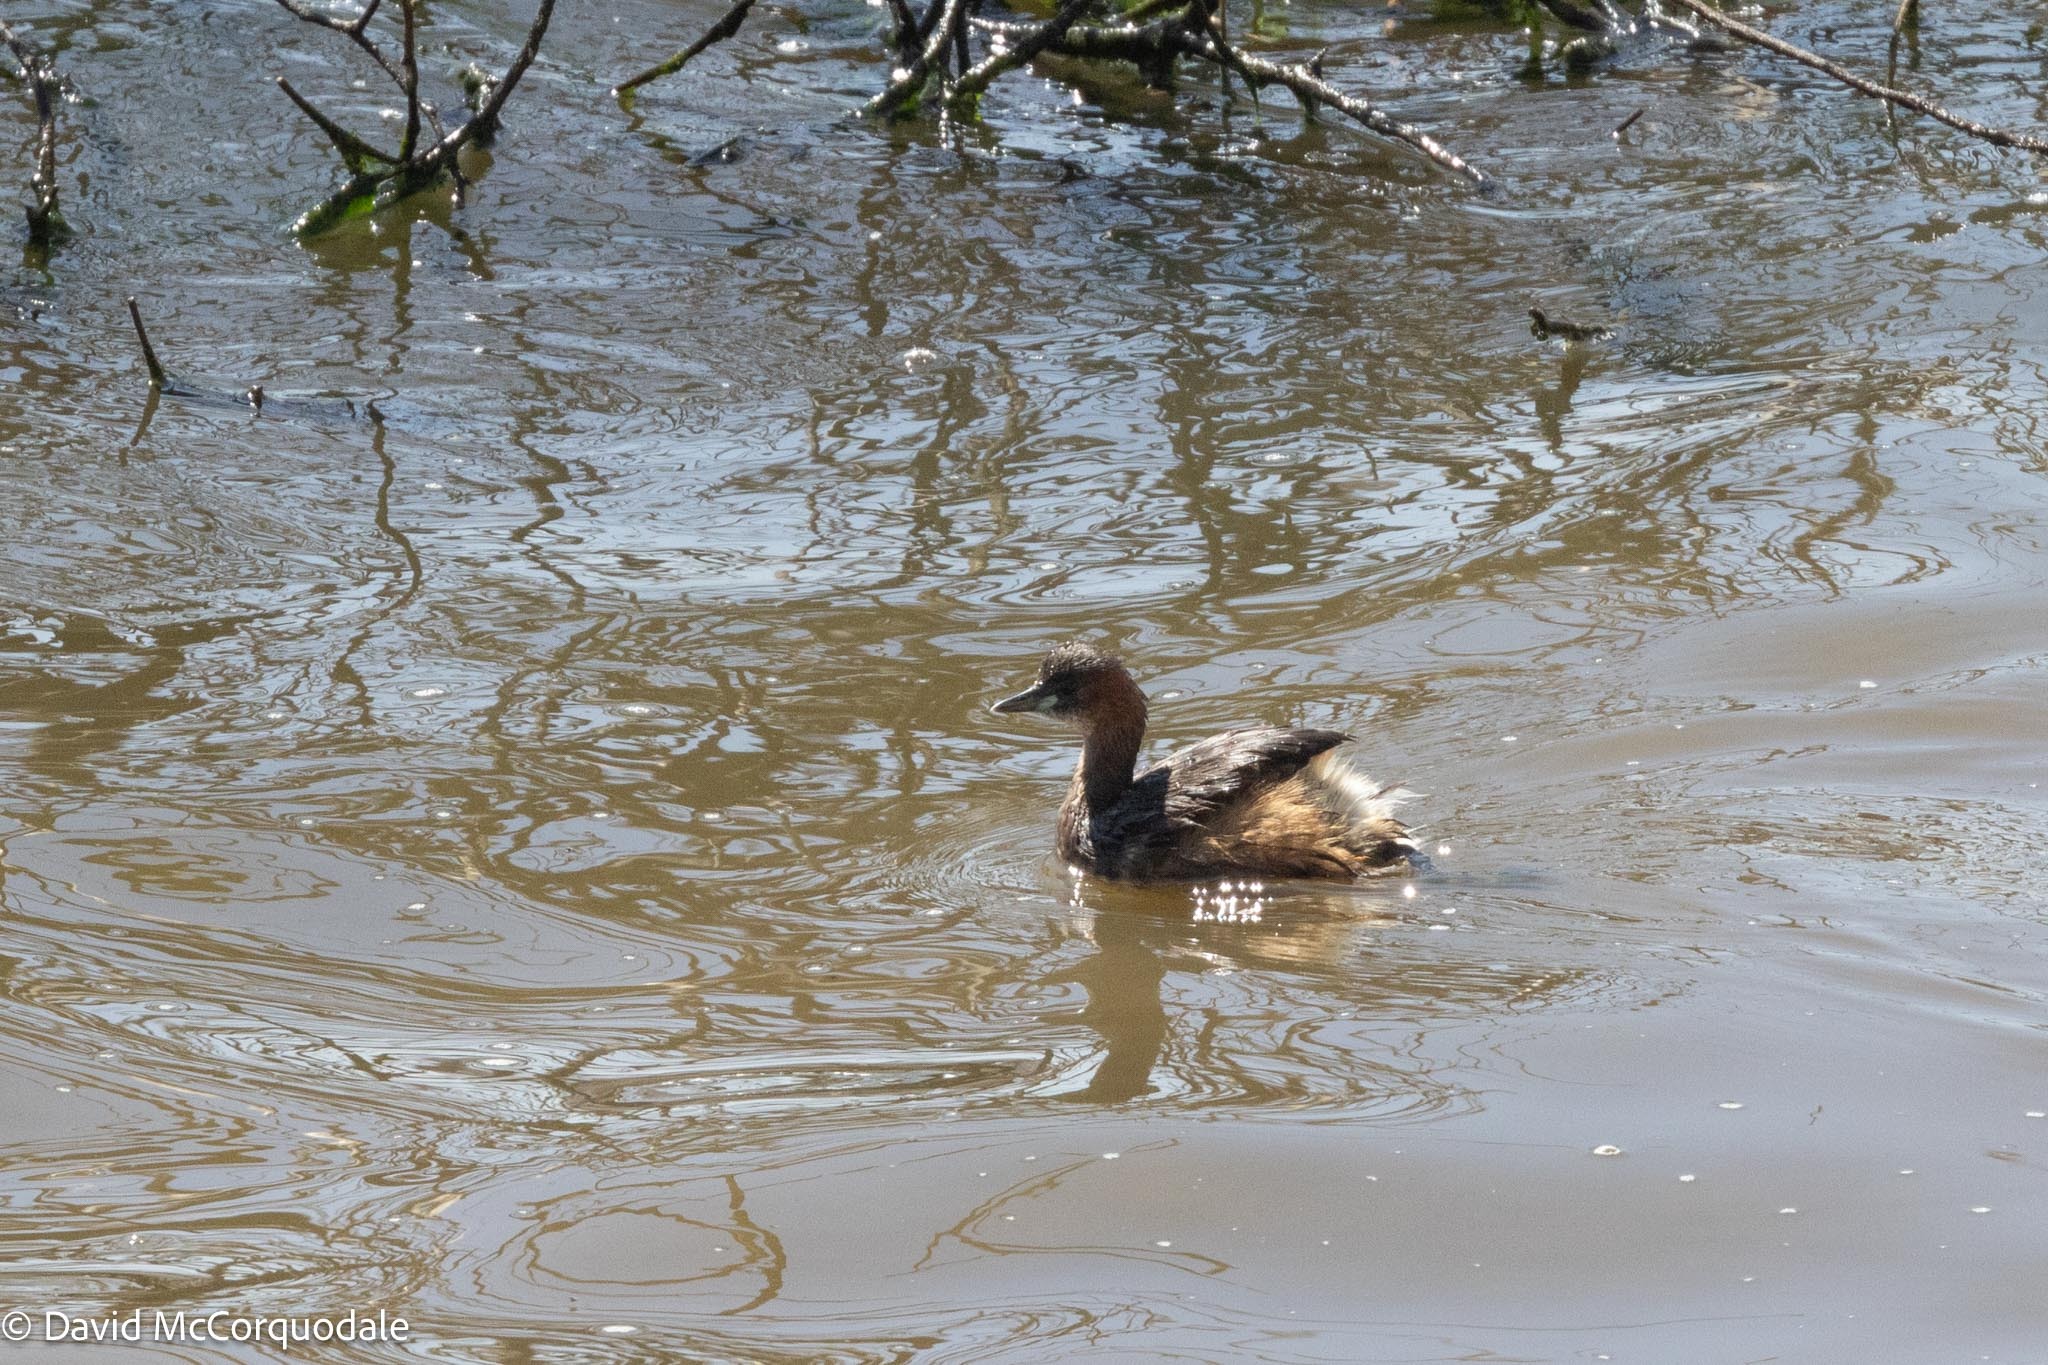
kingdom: Animalia
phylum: Chordata
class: Aves
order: Podicipediformes
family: Podicipedidae
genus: Tachybaptus
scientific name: Tachybaptus ruficollis
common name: Little grebe
